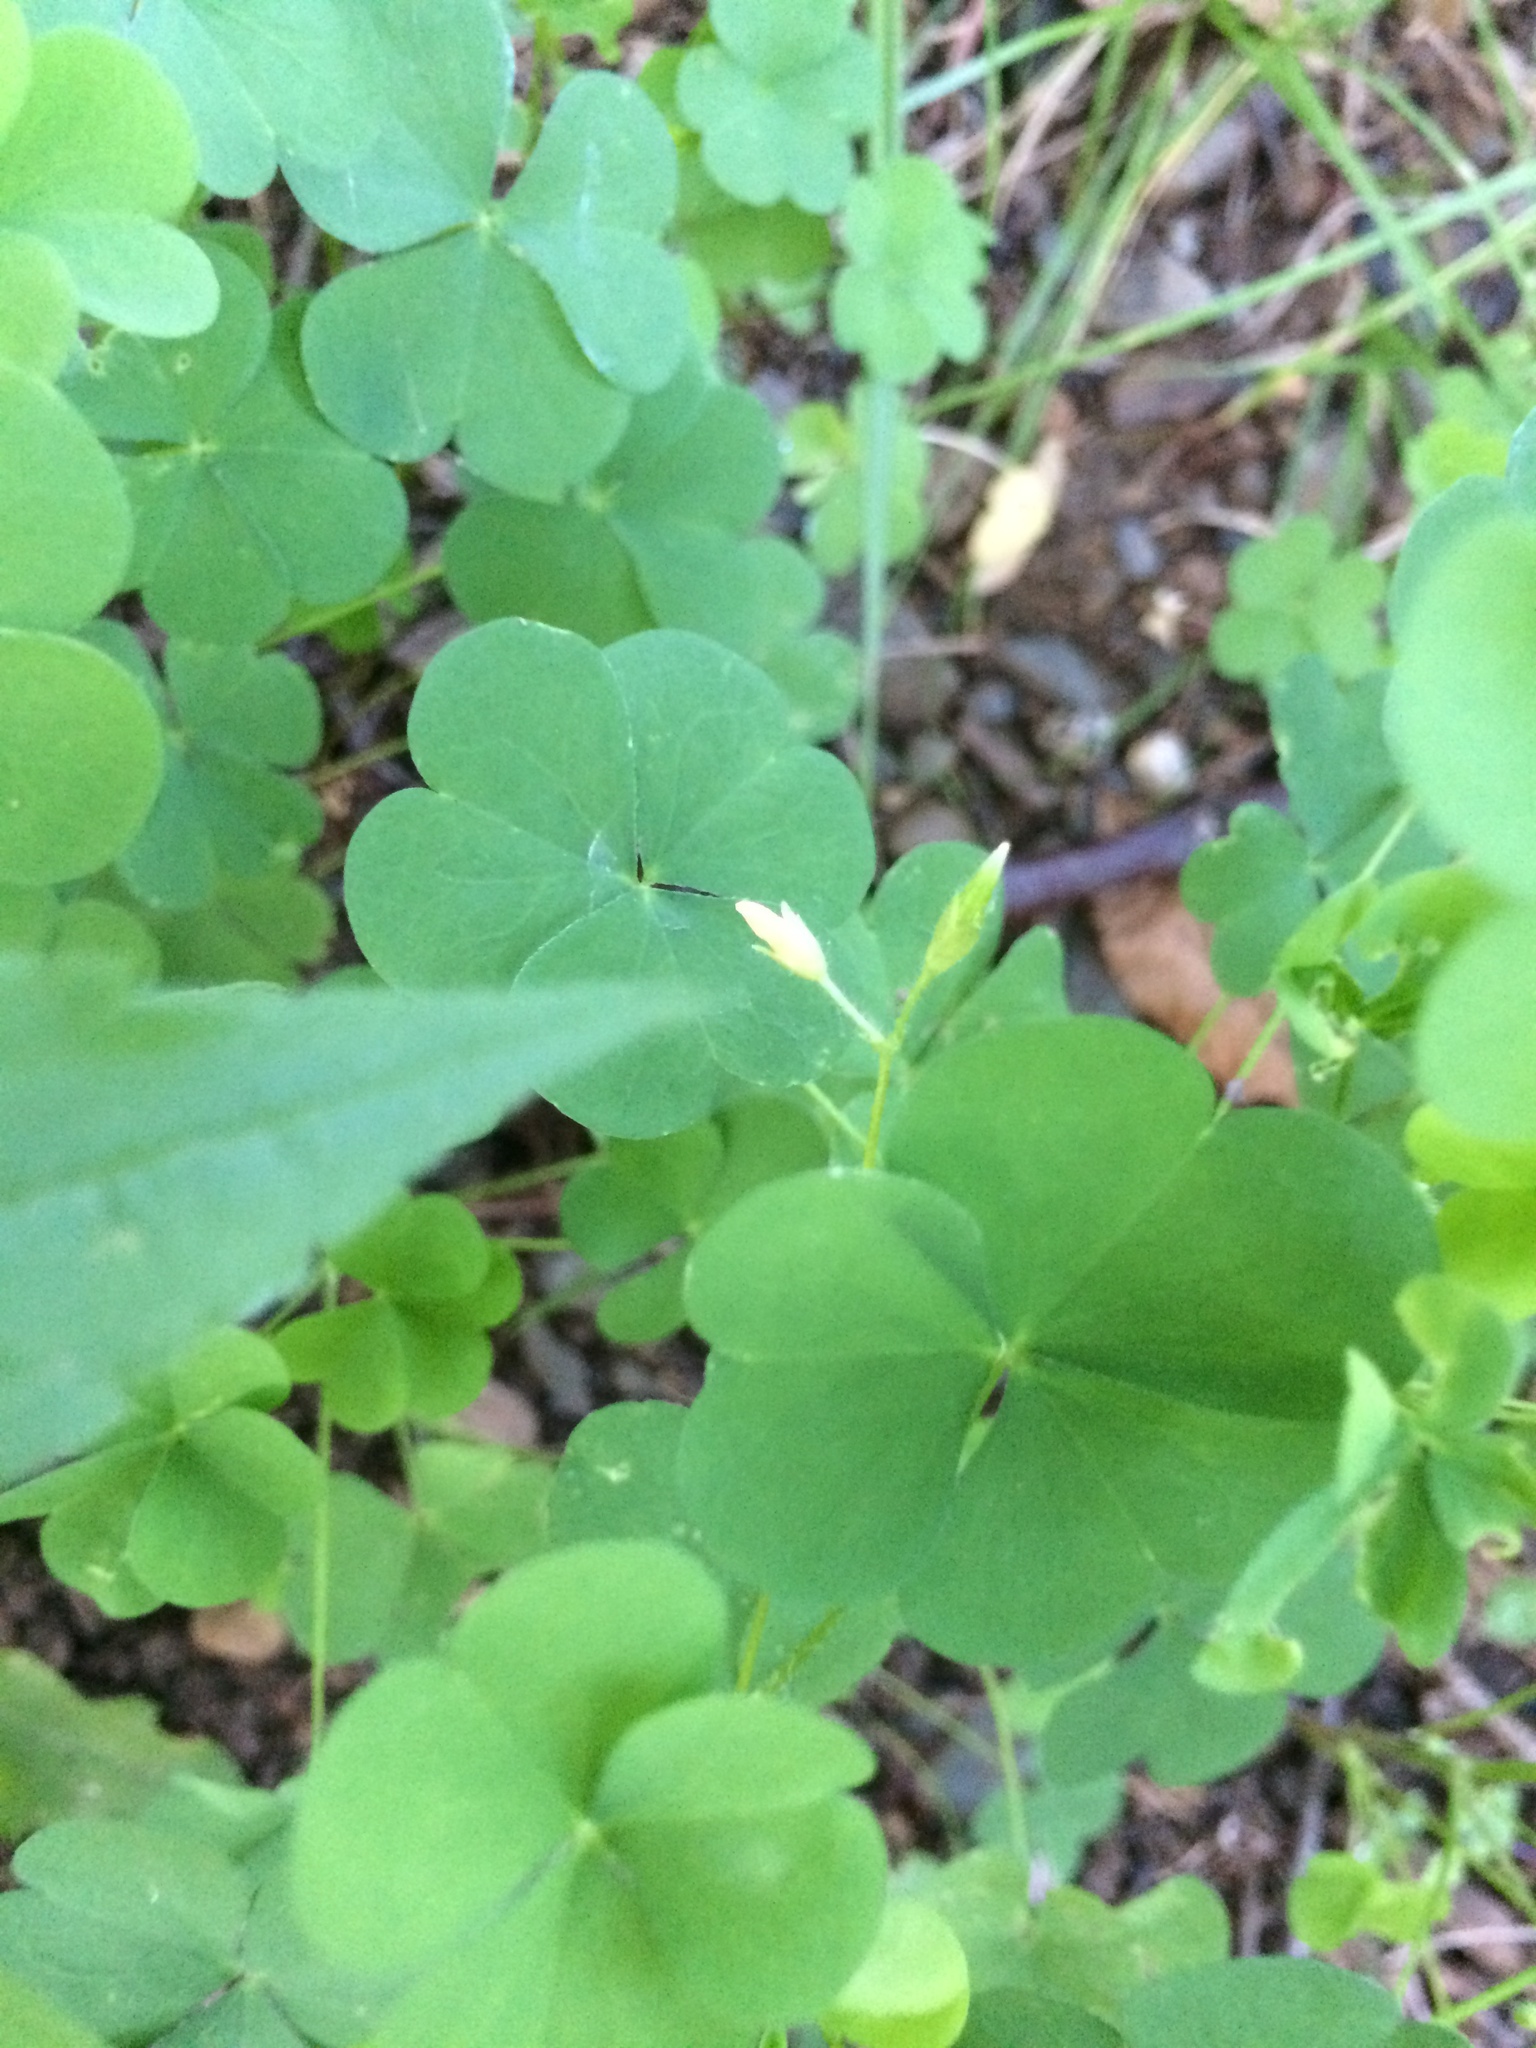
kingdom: Plantae
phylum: Tracheophyta
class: Magnoliopsida
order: Oxalidales
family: Oxalidaceae
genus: Oxalis
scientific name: Oxalis stricta
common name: Upright yellow-sorrel
